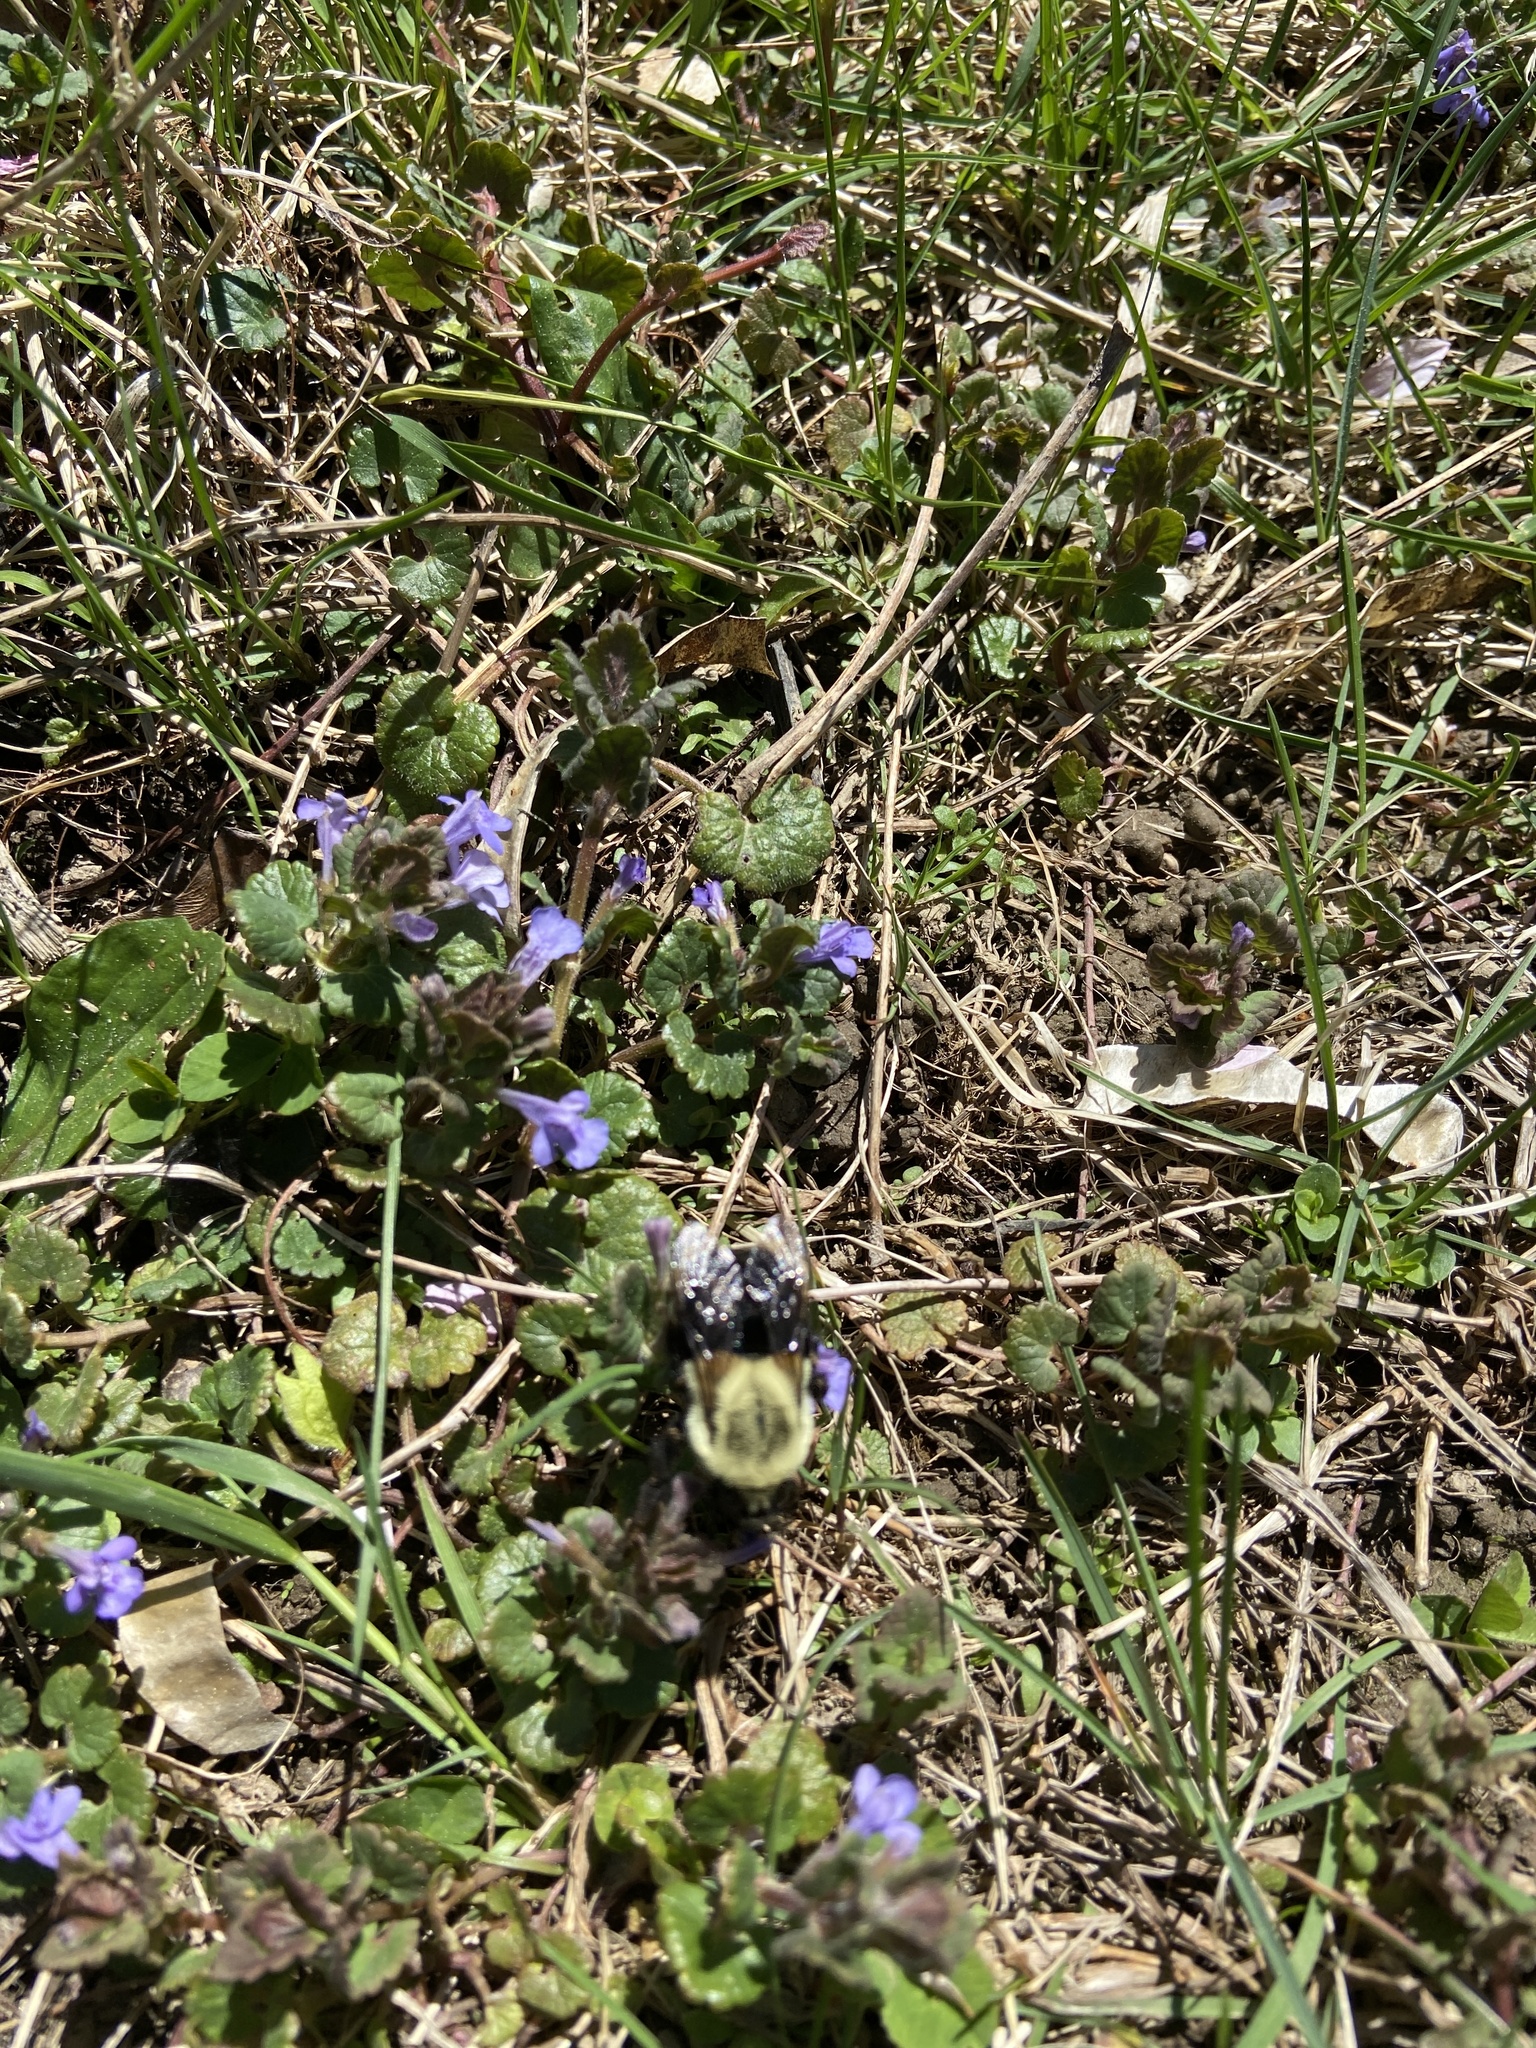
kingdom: Animalia
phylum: Arthropoda
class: Insecta
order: Hymenoptera
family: Apidae
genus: Bombus
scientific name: Bombus impatiens
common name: Common eastern bumble bee
